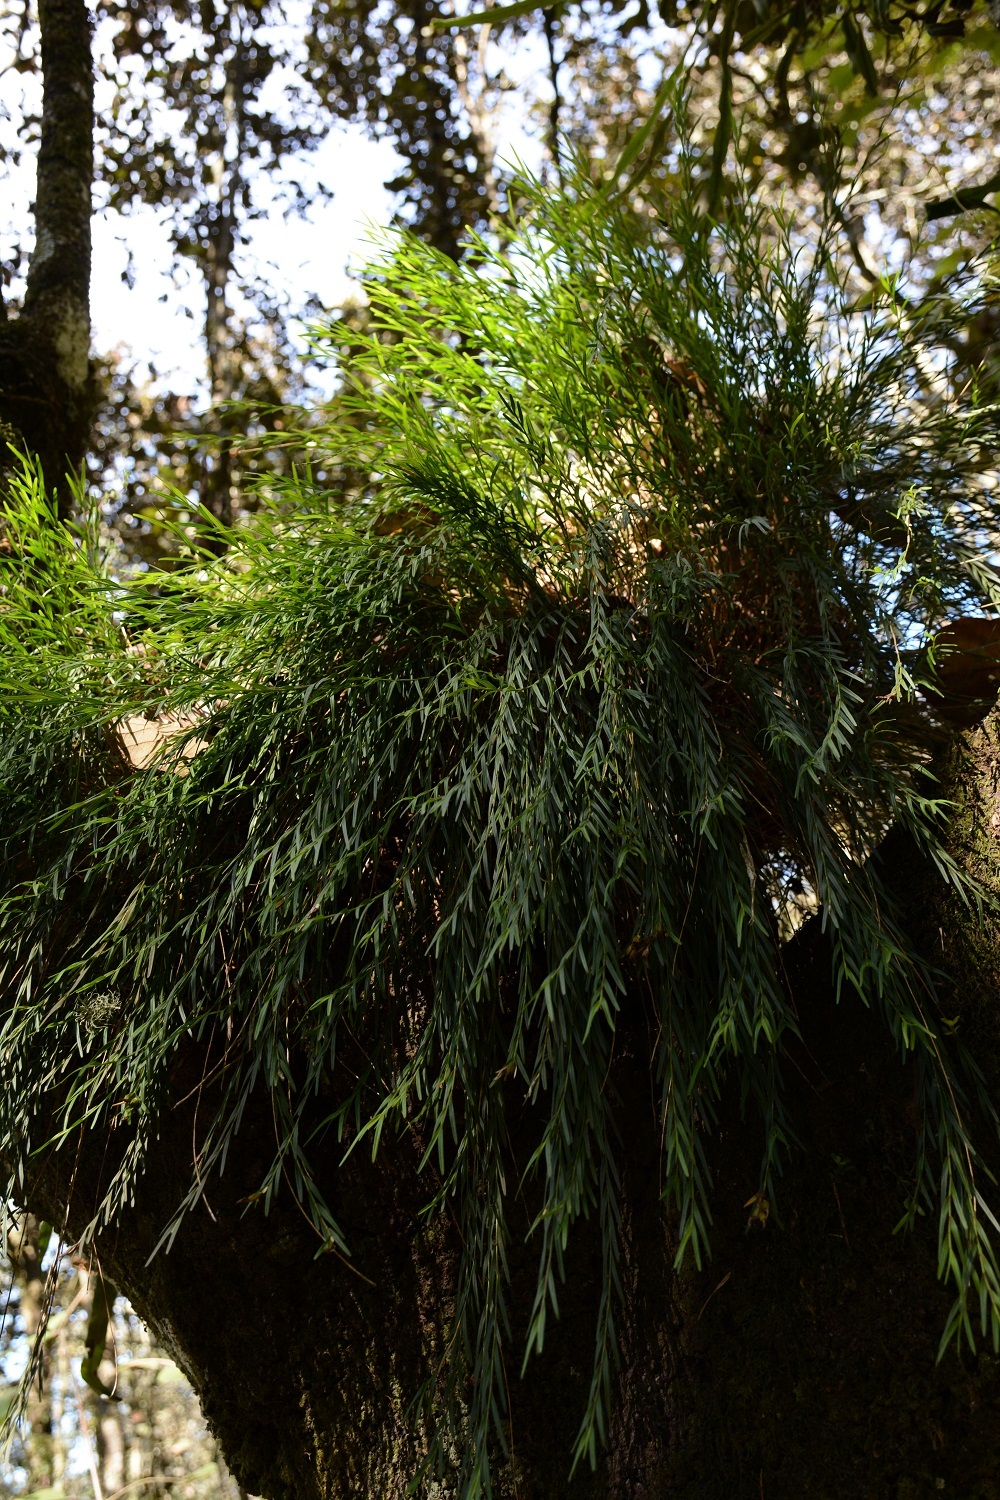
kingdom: Plantae
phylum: Tracheophyta
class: Liliopsida
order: Asparagales
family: Orchidaceae
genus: Isochilus
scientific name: Isochilus aurantiacus
